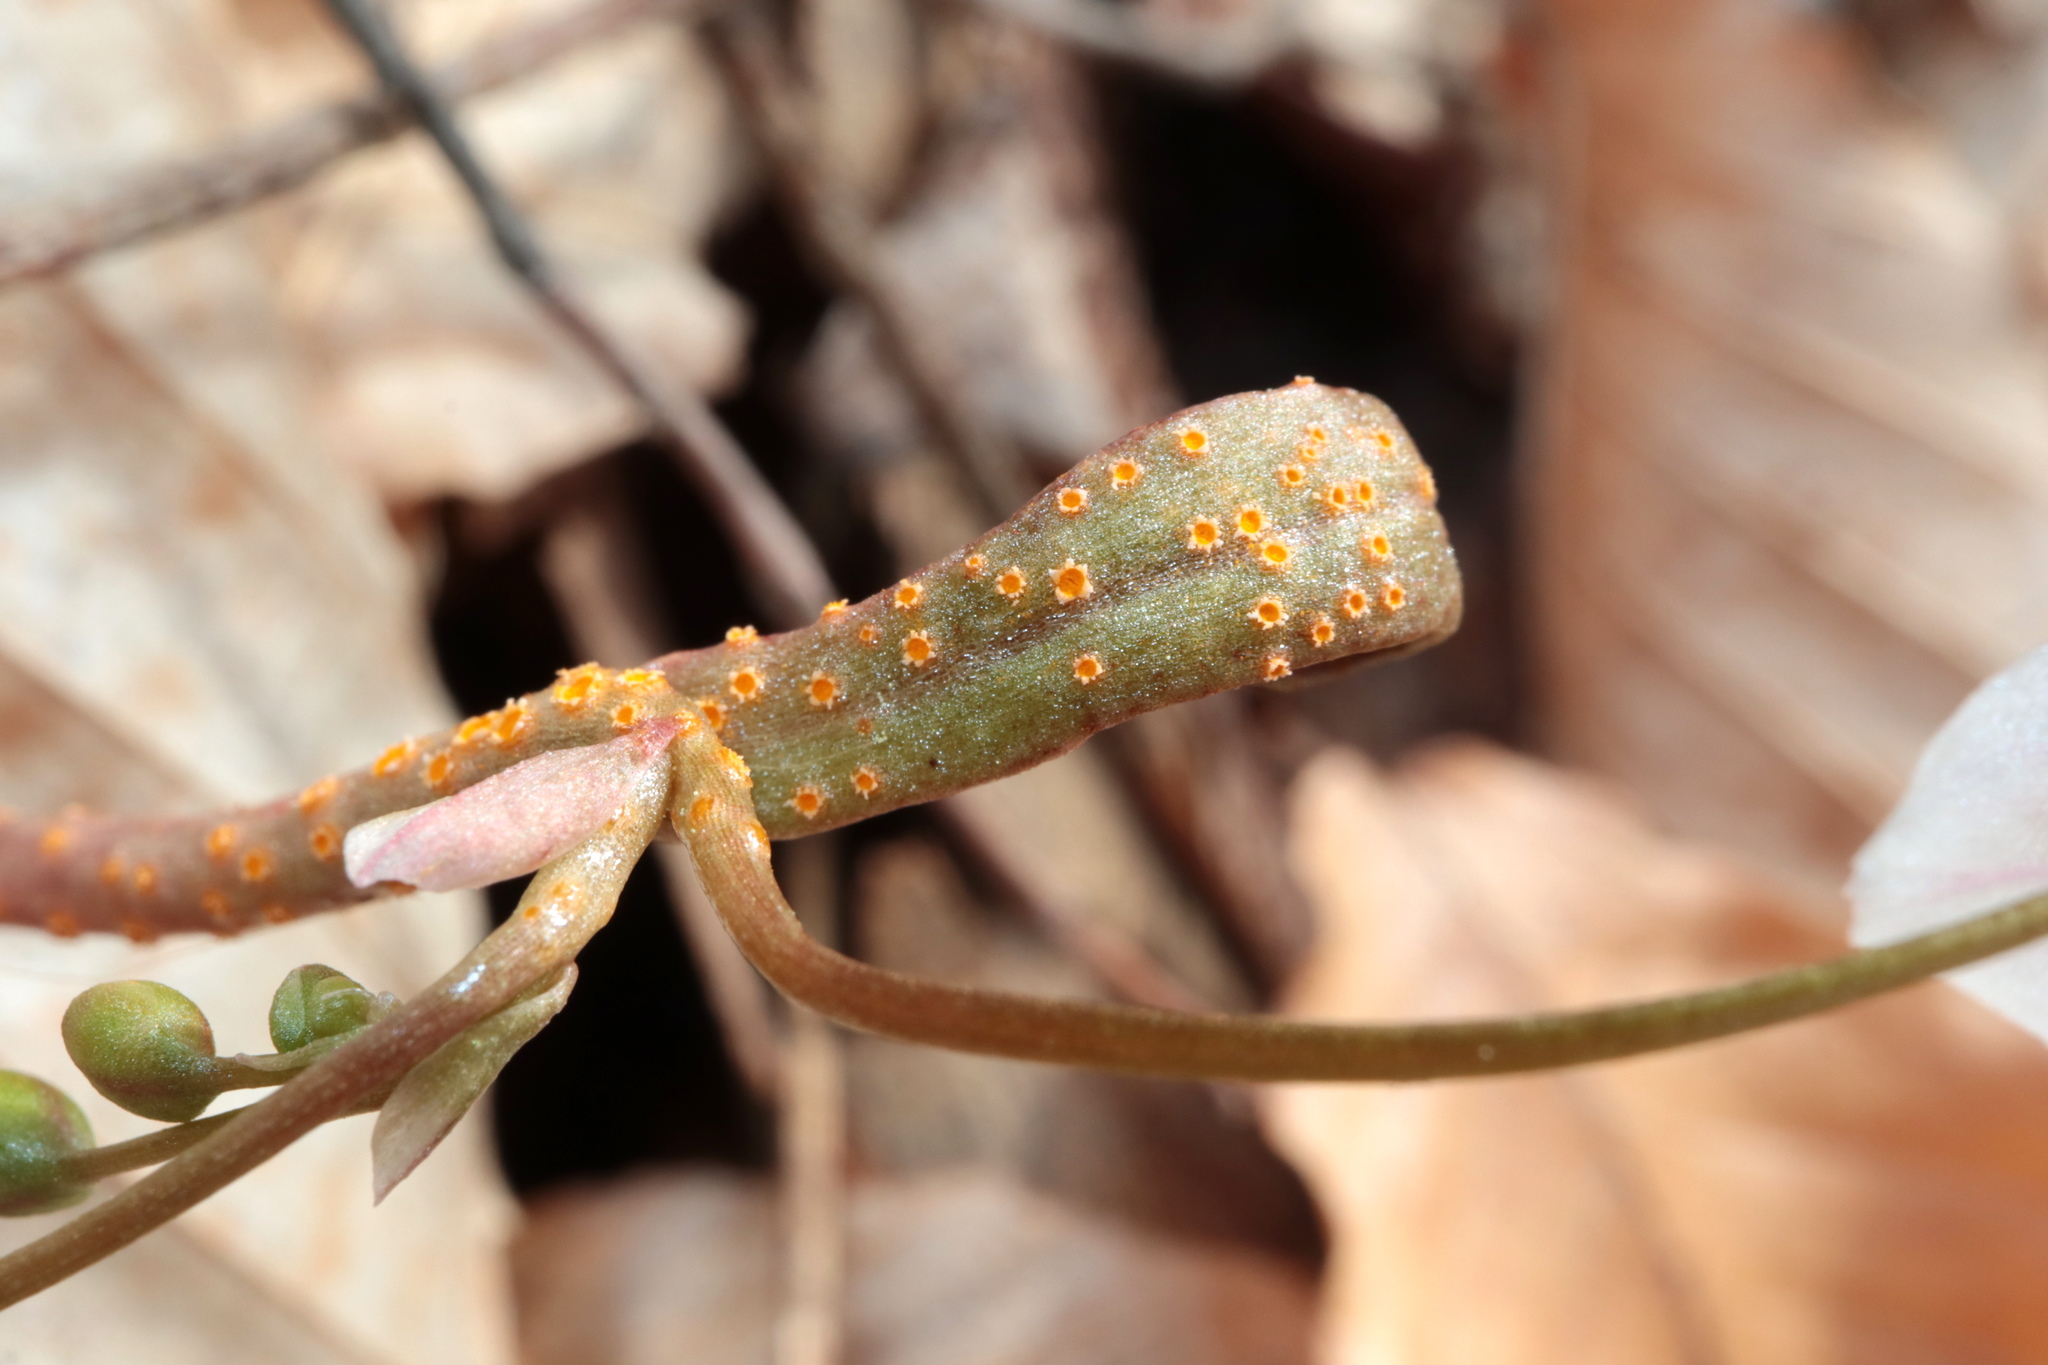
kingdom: Fungi
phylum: Basidiomycota
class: Pucciniomycetes
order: Pucciniales
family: Pucciniaceae
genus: Puccinia
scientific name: Puccinia mariae-wilsoniae
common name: Spring beauty rust
